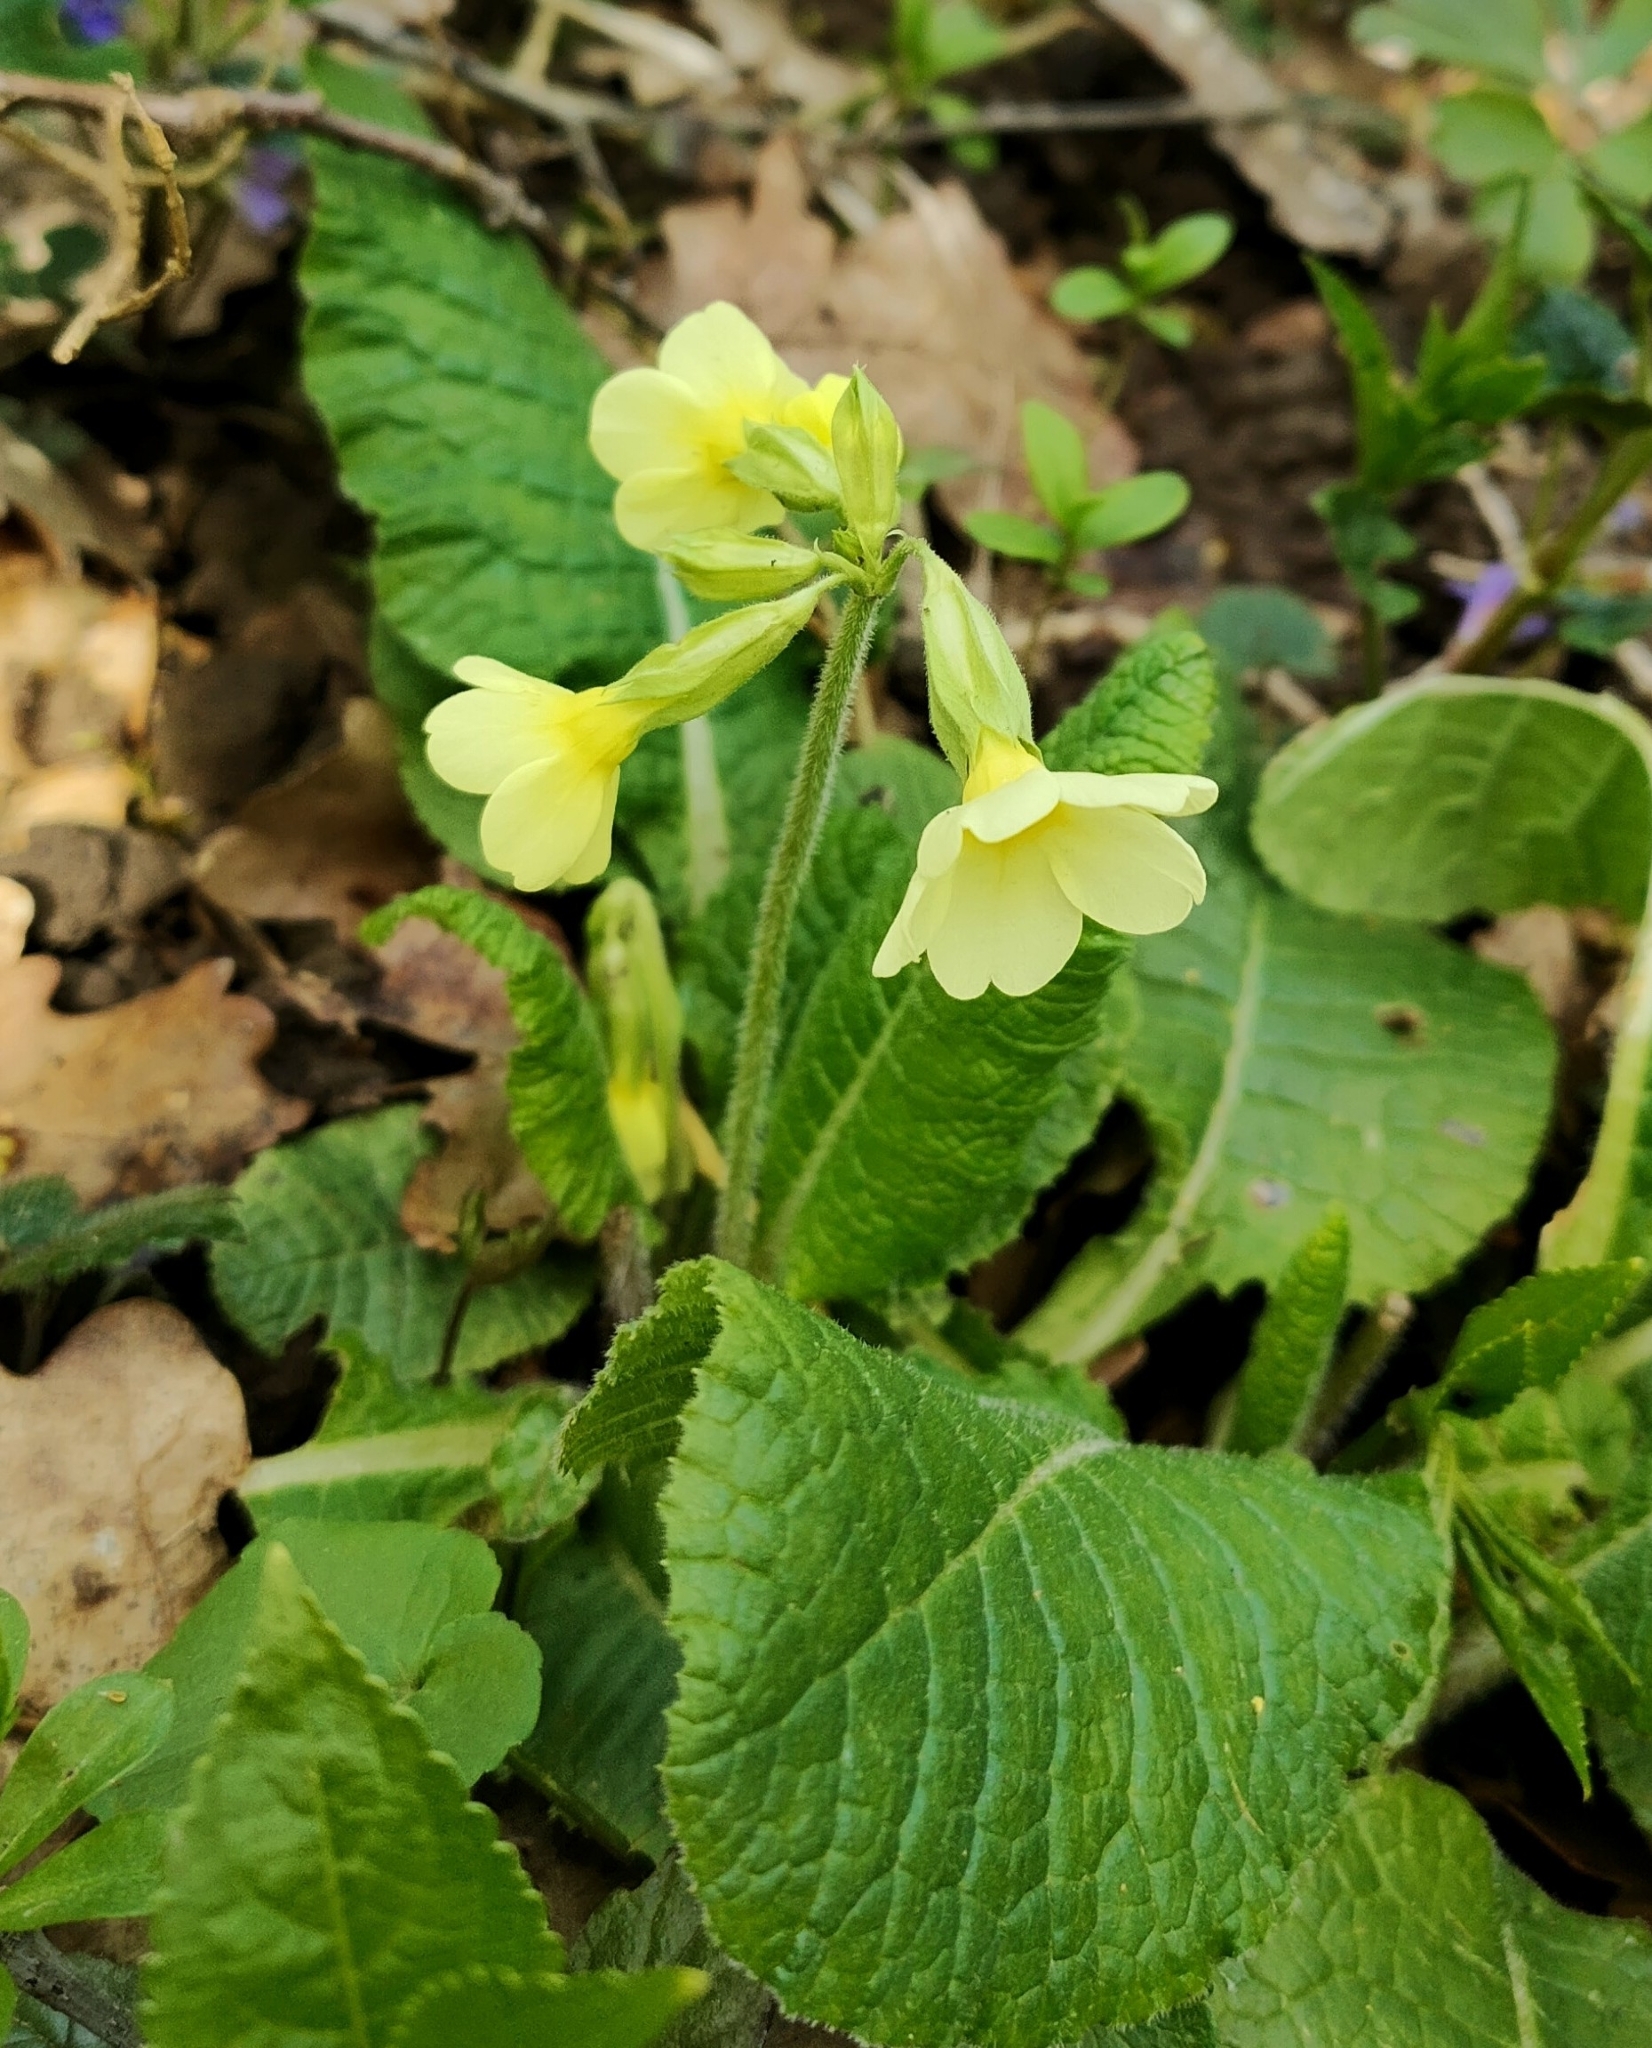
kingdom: Plantae
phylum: Tracheophyta
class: Magnoliopsida
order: Ericales
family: Primulaceae
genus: Primula
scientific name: Primula elatior
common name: Oxlip
